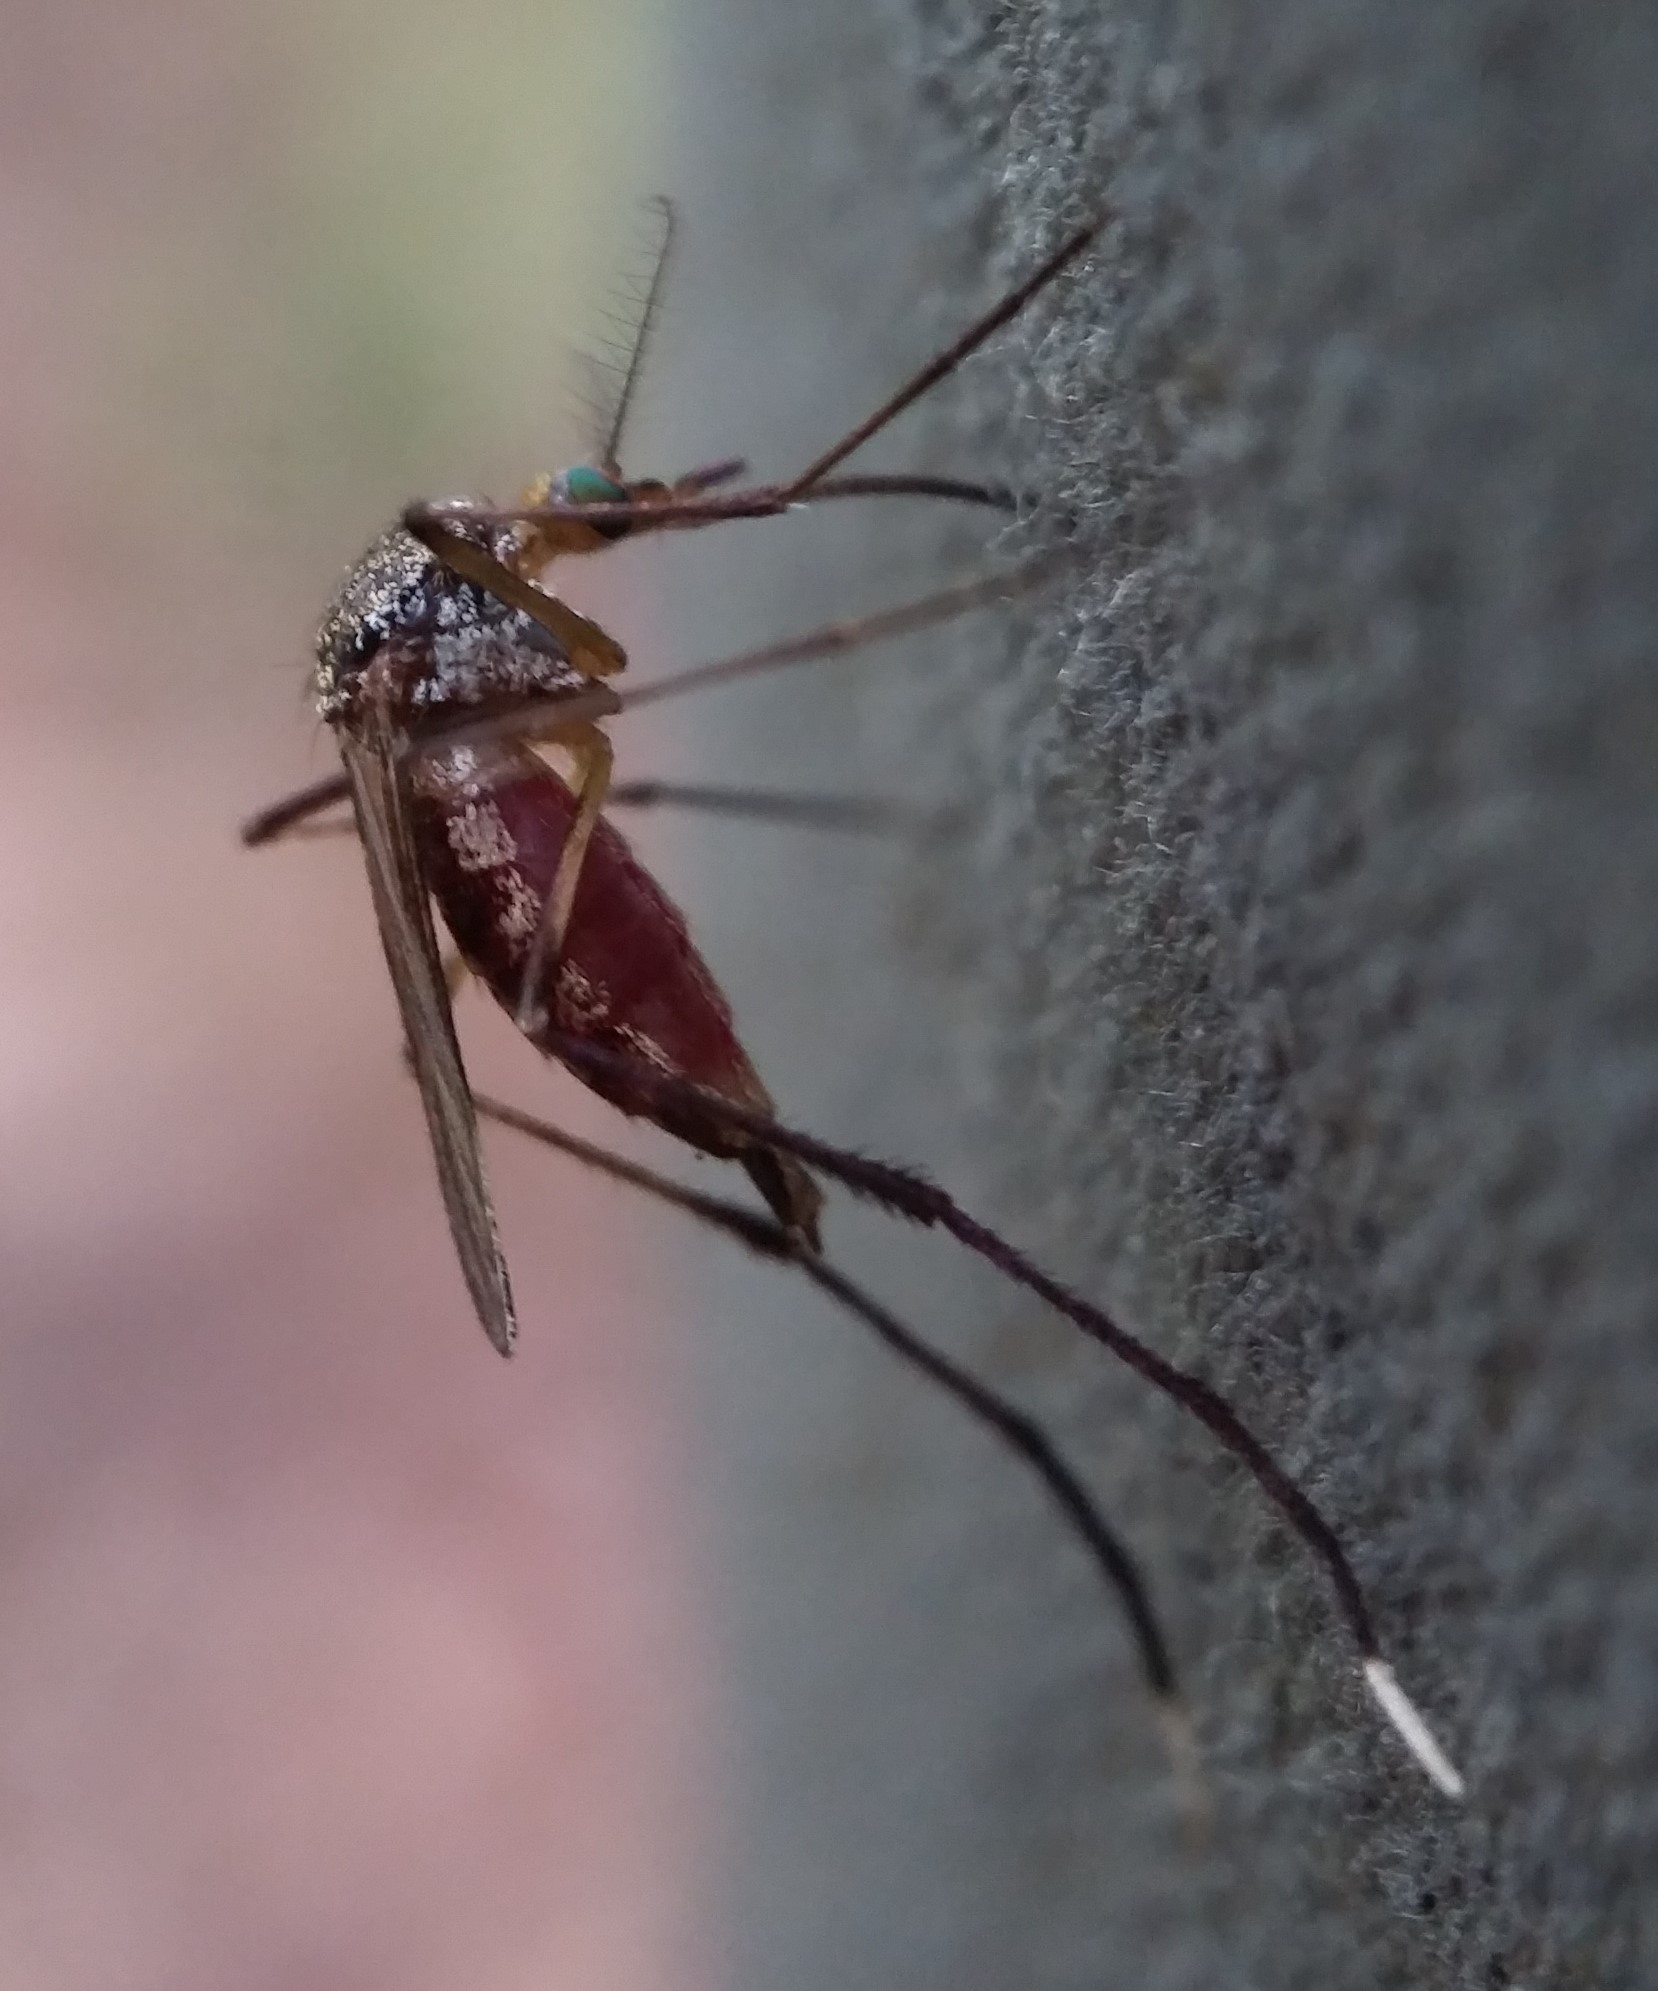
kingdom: Animalia
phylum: Arthropoda
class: Insecta
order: Diptera
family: Culicidae
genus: Psorophora
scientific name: Psorophora ferox
